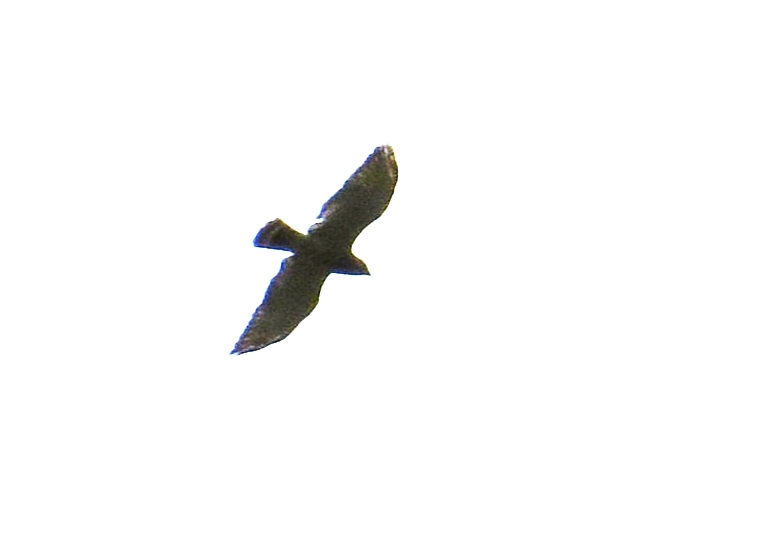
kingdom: Animalia
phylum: Chordata
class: Aves
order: Accipitriformes
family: Accipitridae
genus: Buteo
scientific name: Buteo platypterus
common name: Broad-winged hawk
